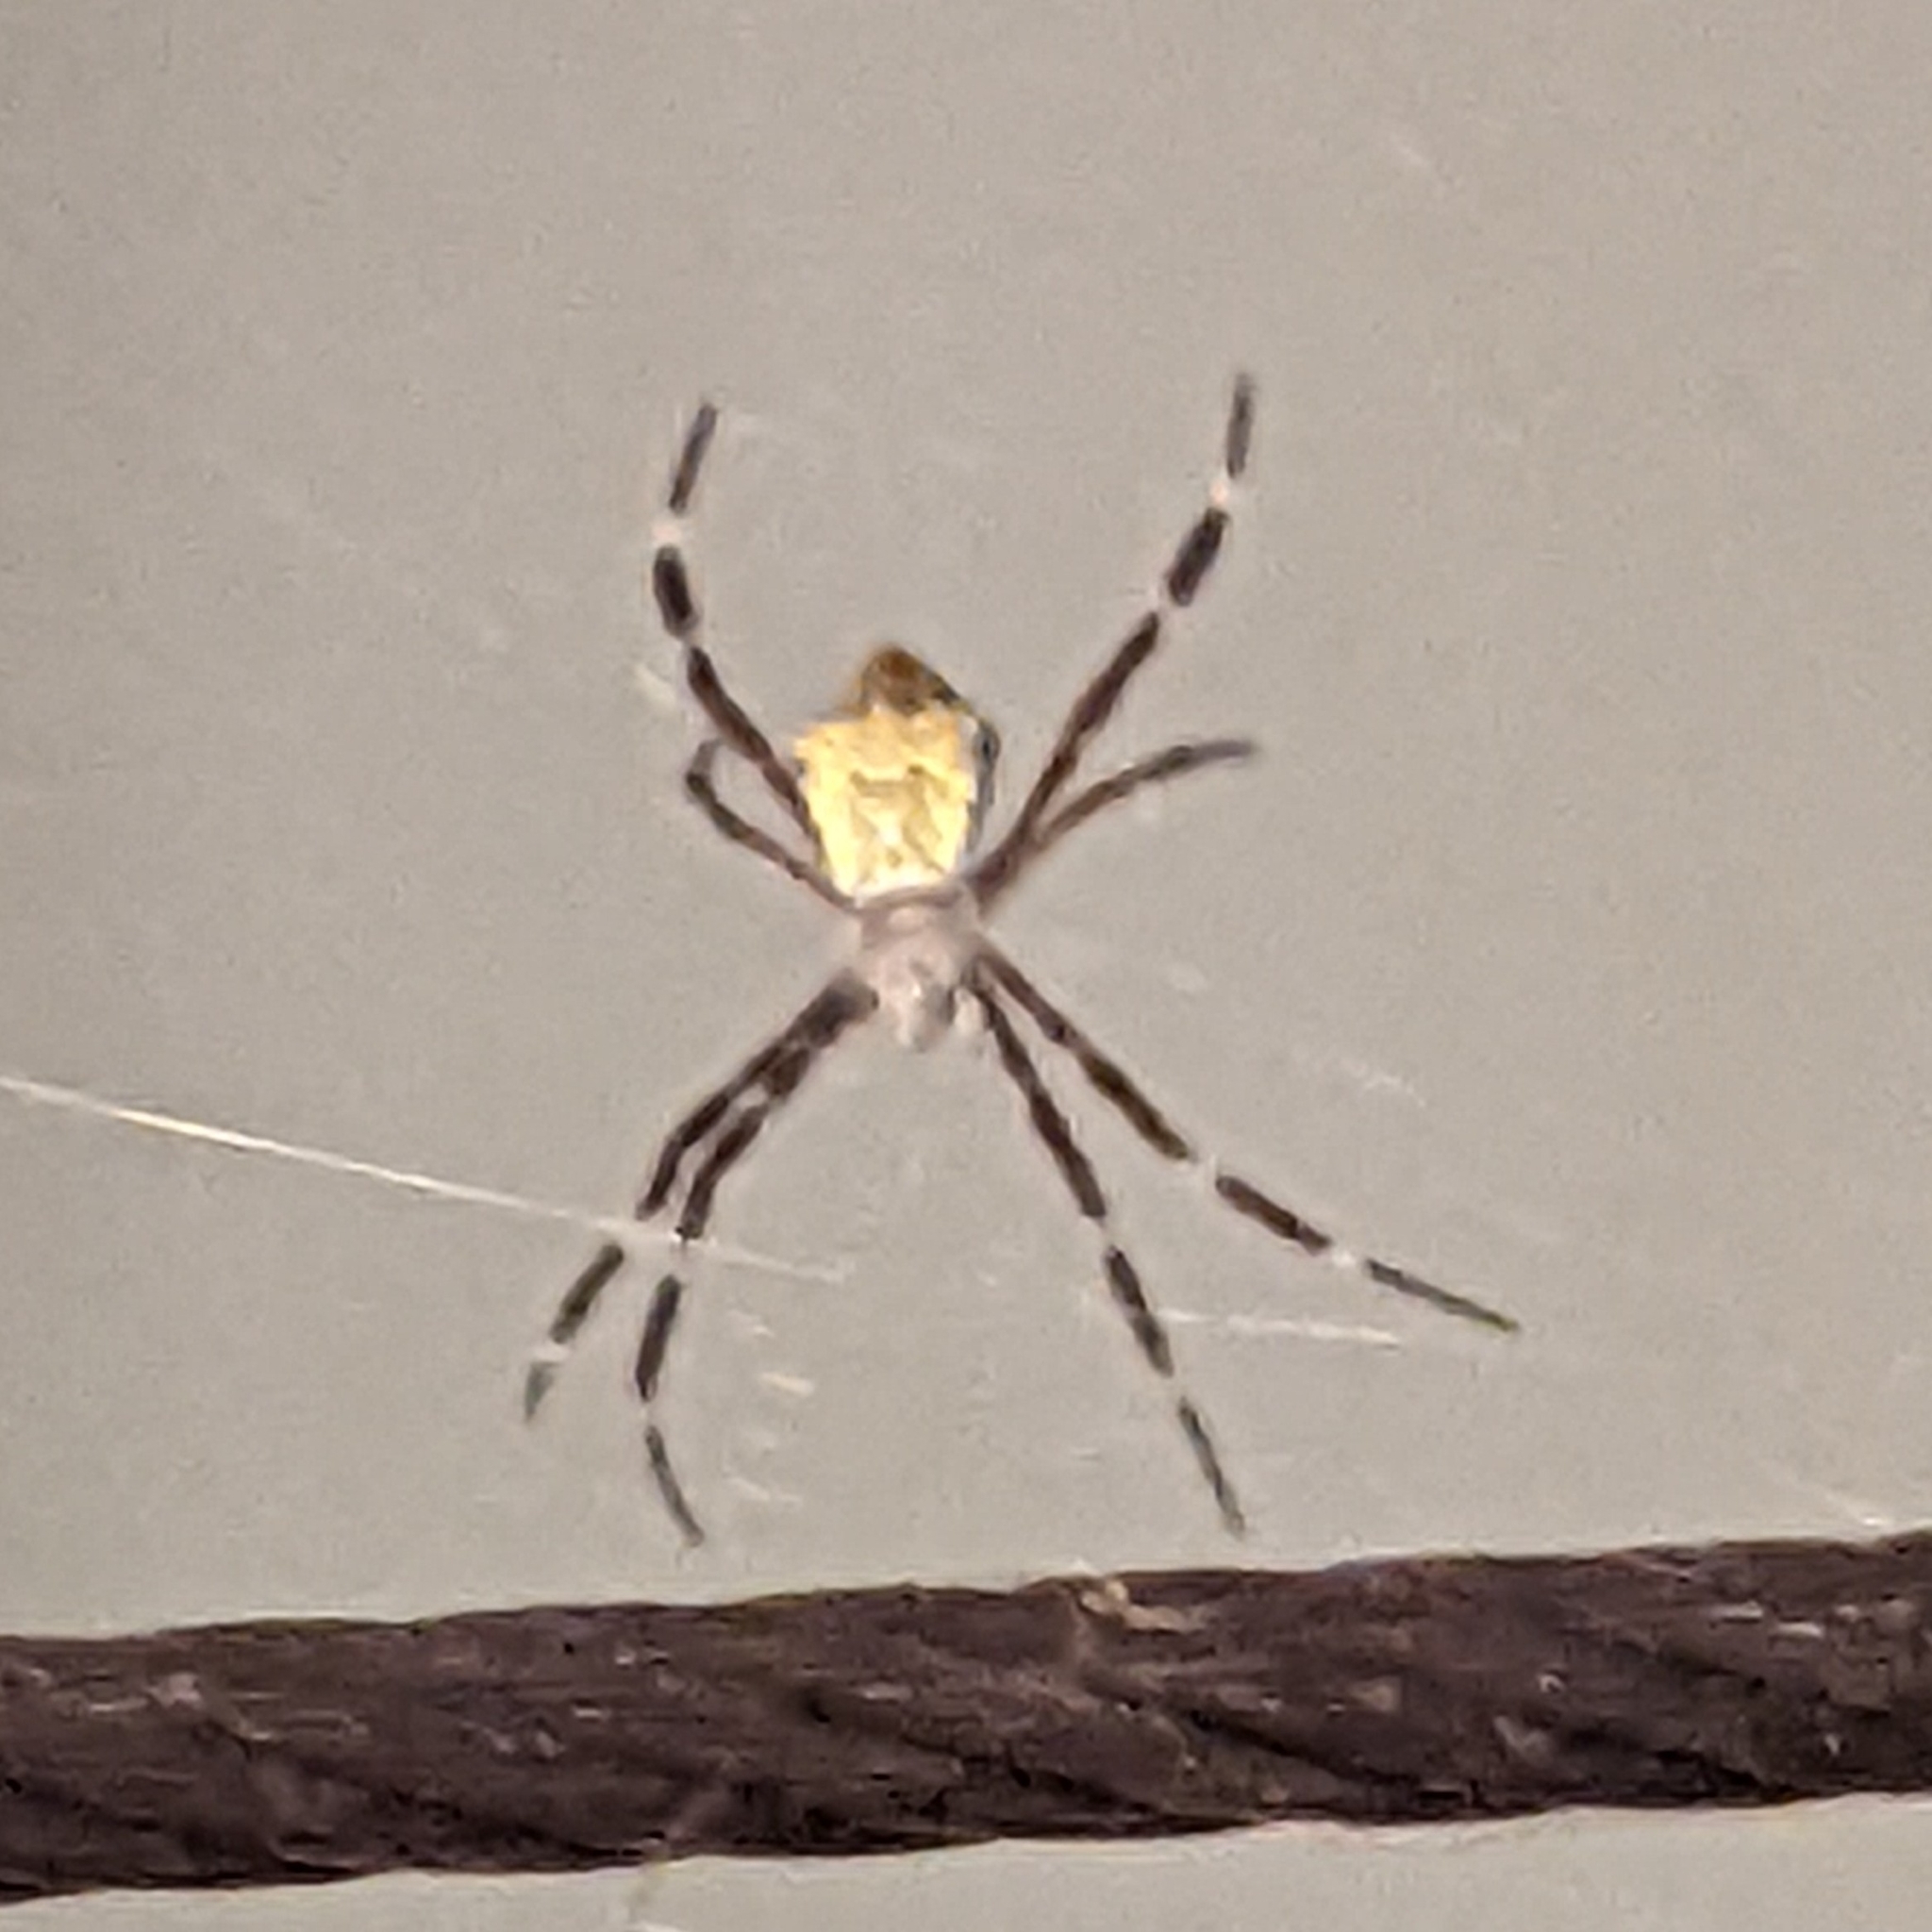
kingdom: Animalia
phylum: Arthropoda
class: Arachnida
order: Araneae
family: Araneidae
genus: Argiope
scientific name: Argiope appensa
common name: Garden spider
